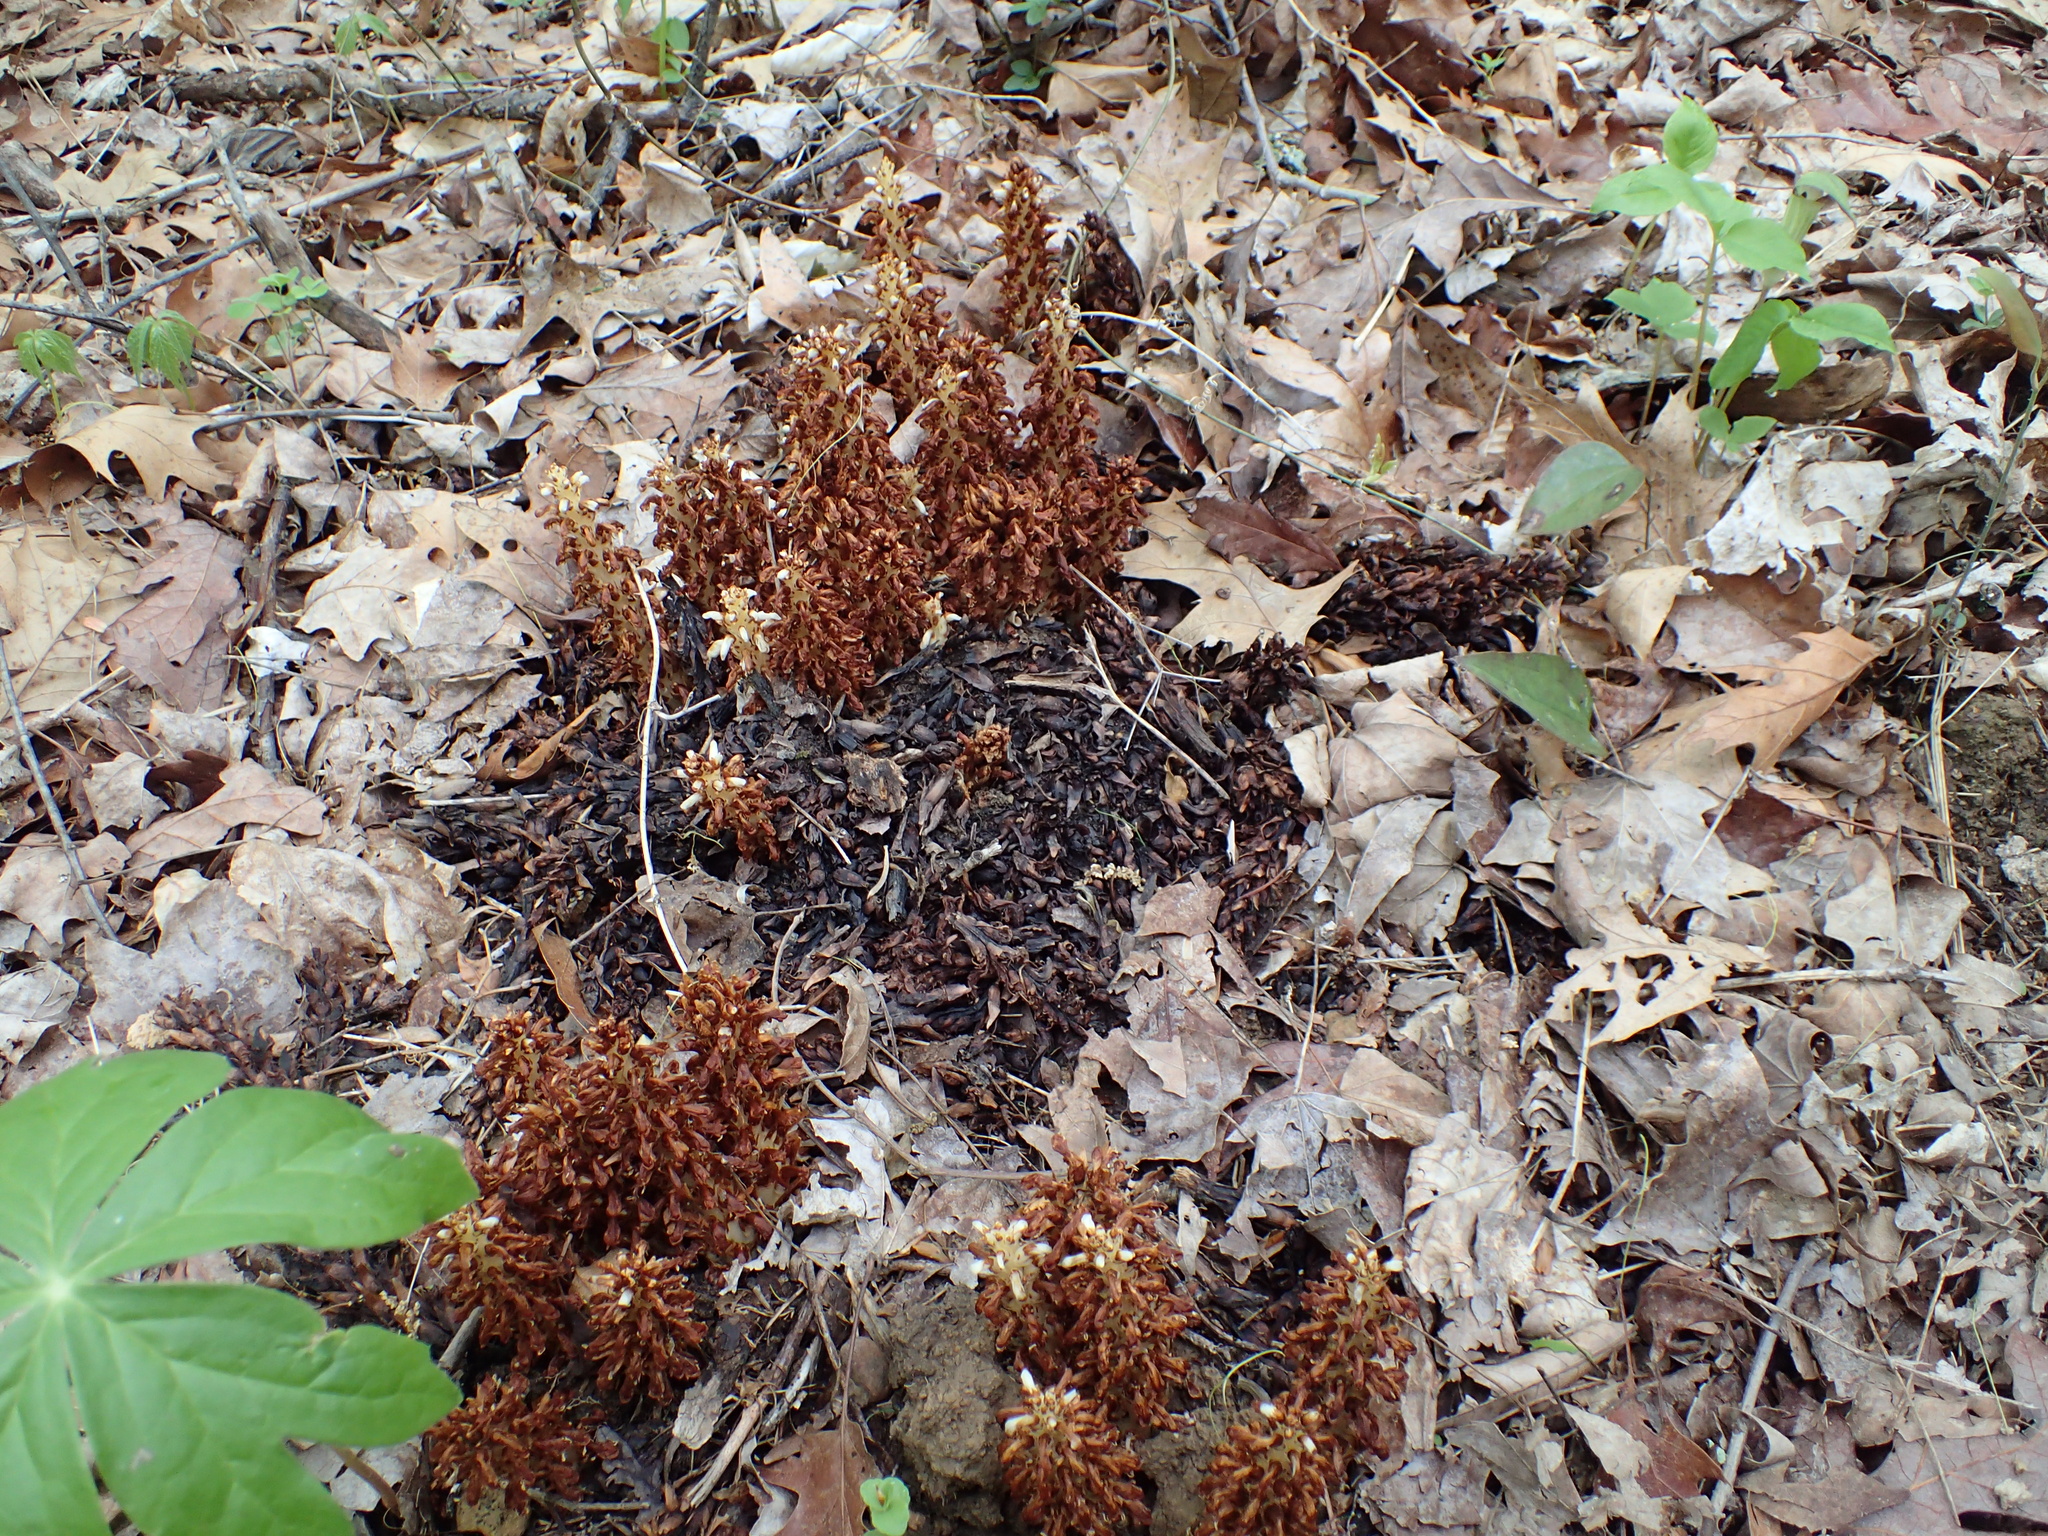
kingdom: Plantae
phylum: Tracheophyta
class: Magnoliopsida
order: Lamiales
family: Orobanchaceae
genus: Conopholis
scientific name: Conopholis americana
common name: American cancer-root
